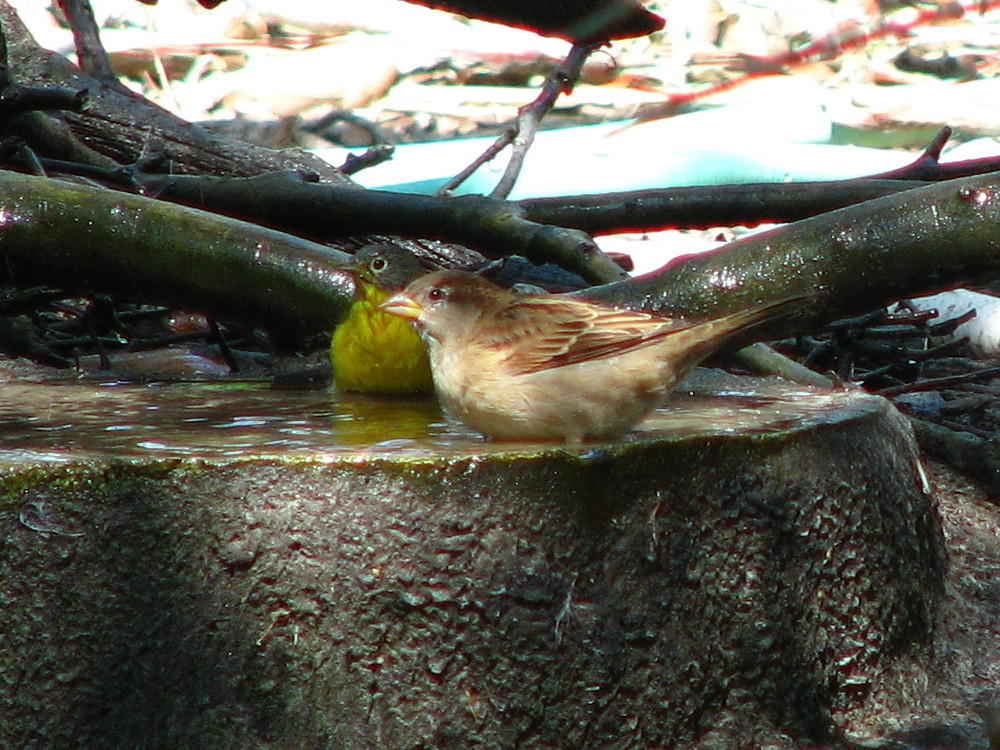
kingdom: Animalia
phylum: Chordata
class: Aves
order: Passeriformes
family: Passeridae
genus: Passer
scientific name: Passer domesticus
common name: House sparrow
